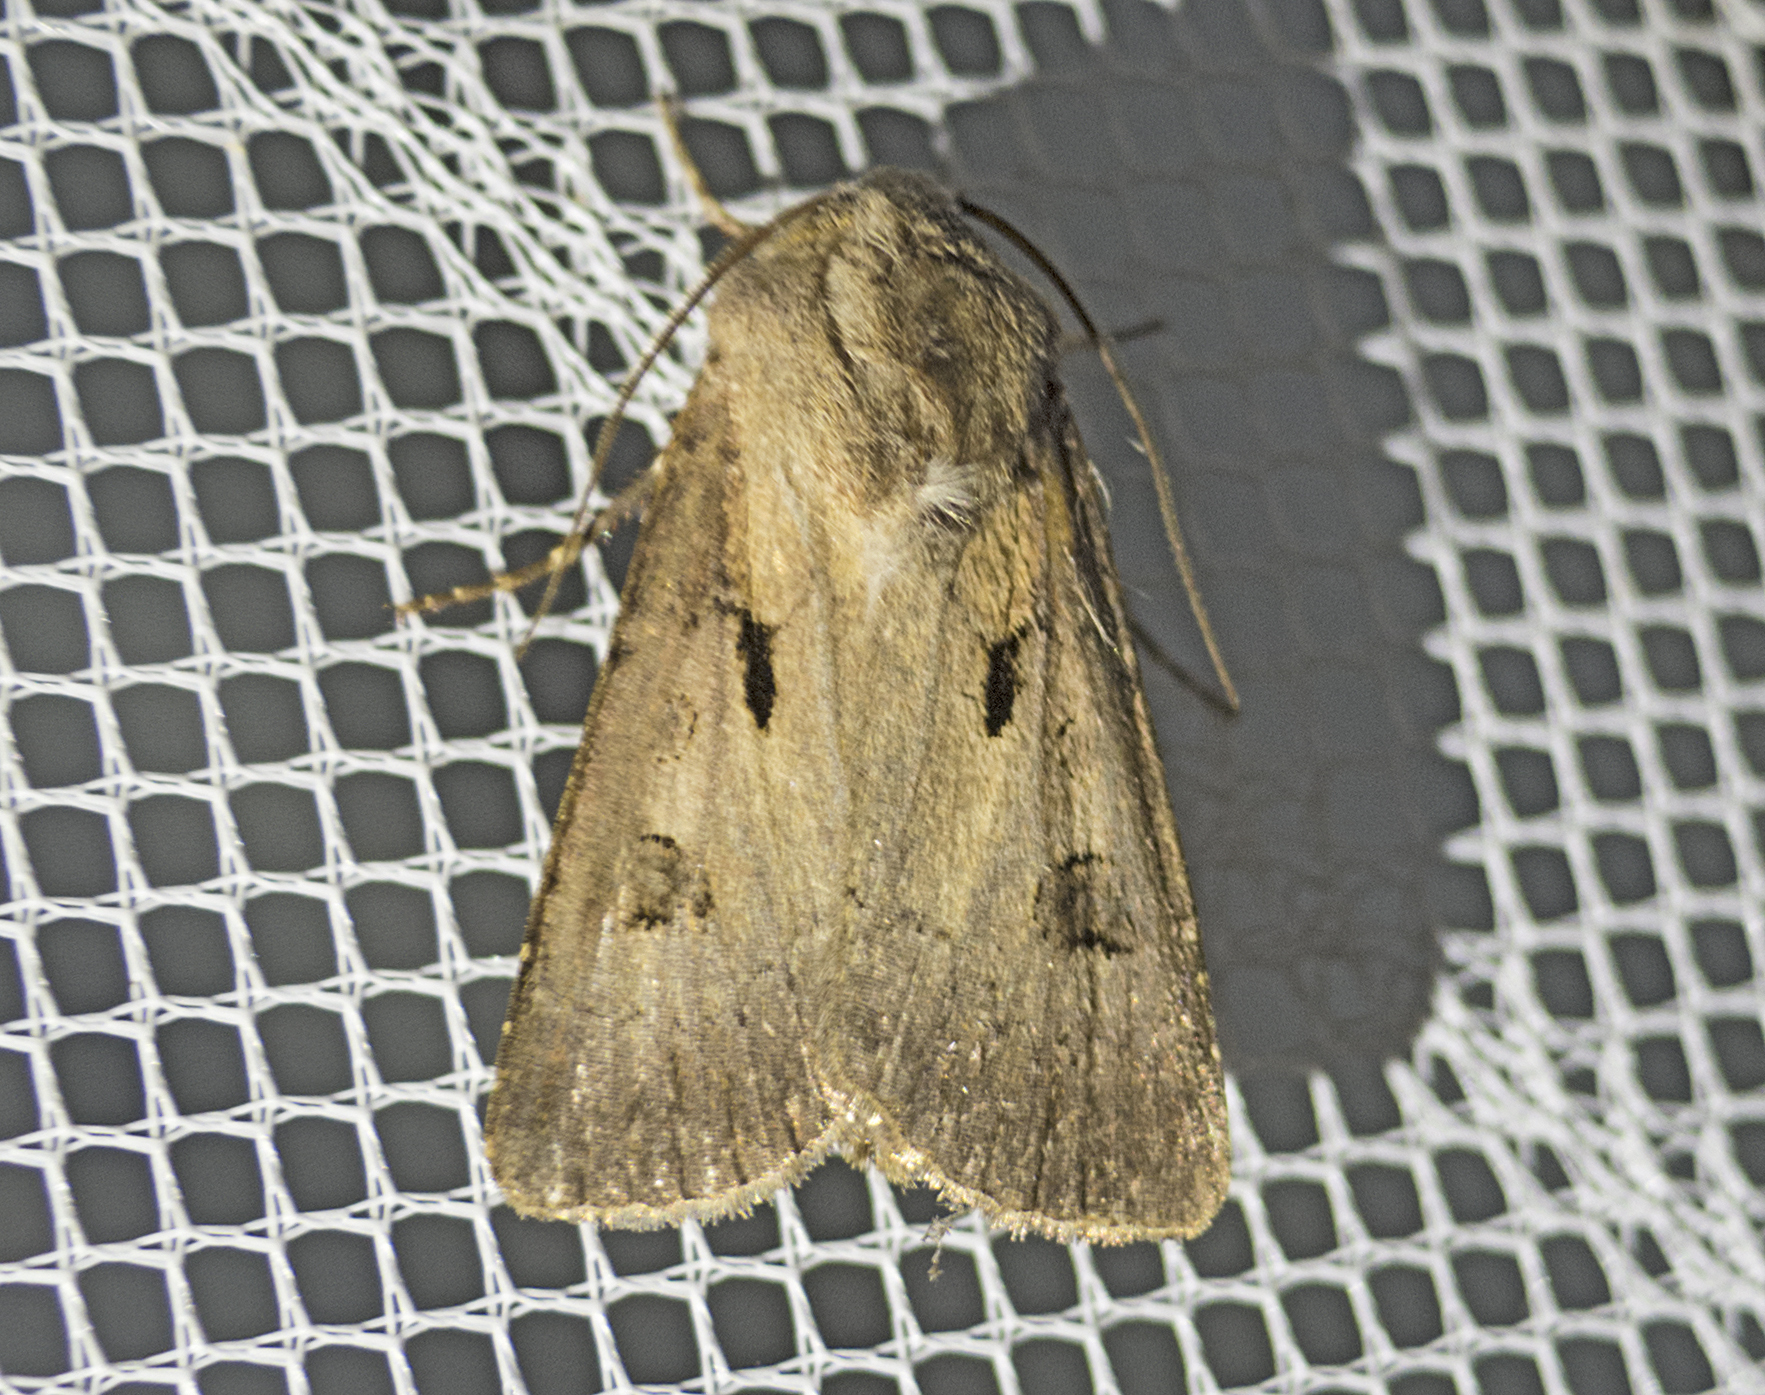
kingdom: Animalia
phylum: Arthropoda
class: Insecta
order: Lepidoptera
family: Noctuidae
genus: Agrotis
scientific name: Agrotis exclamationis
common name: Heart and dart
